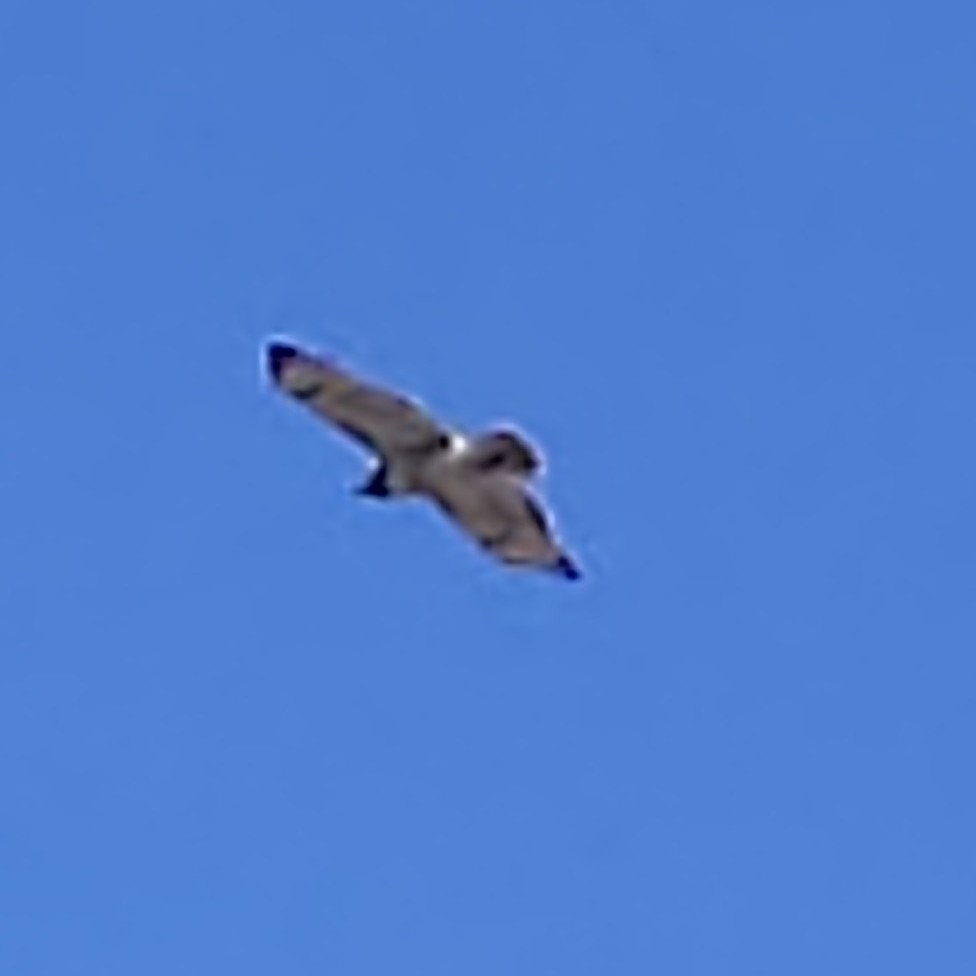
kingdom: Animalia
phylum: Chordata
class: Aves
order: Accipitriformes
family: Accipitridae
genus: Buteo
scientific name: Buteo jamaicensis
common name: Red-tailed hawk
